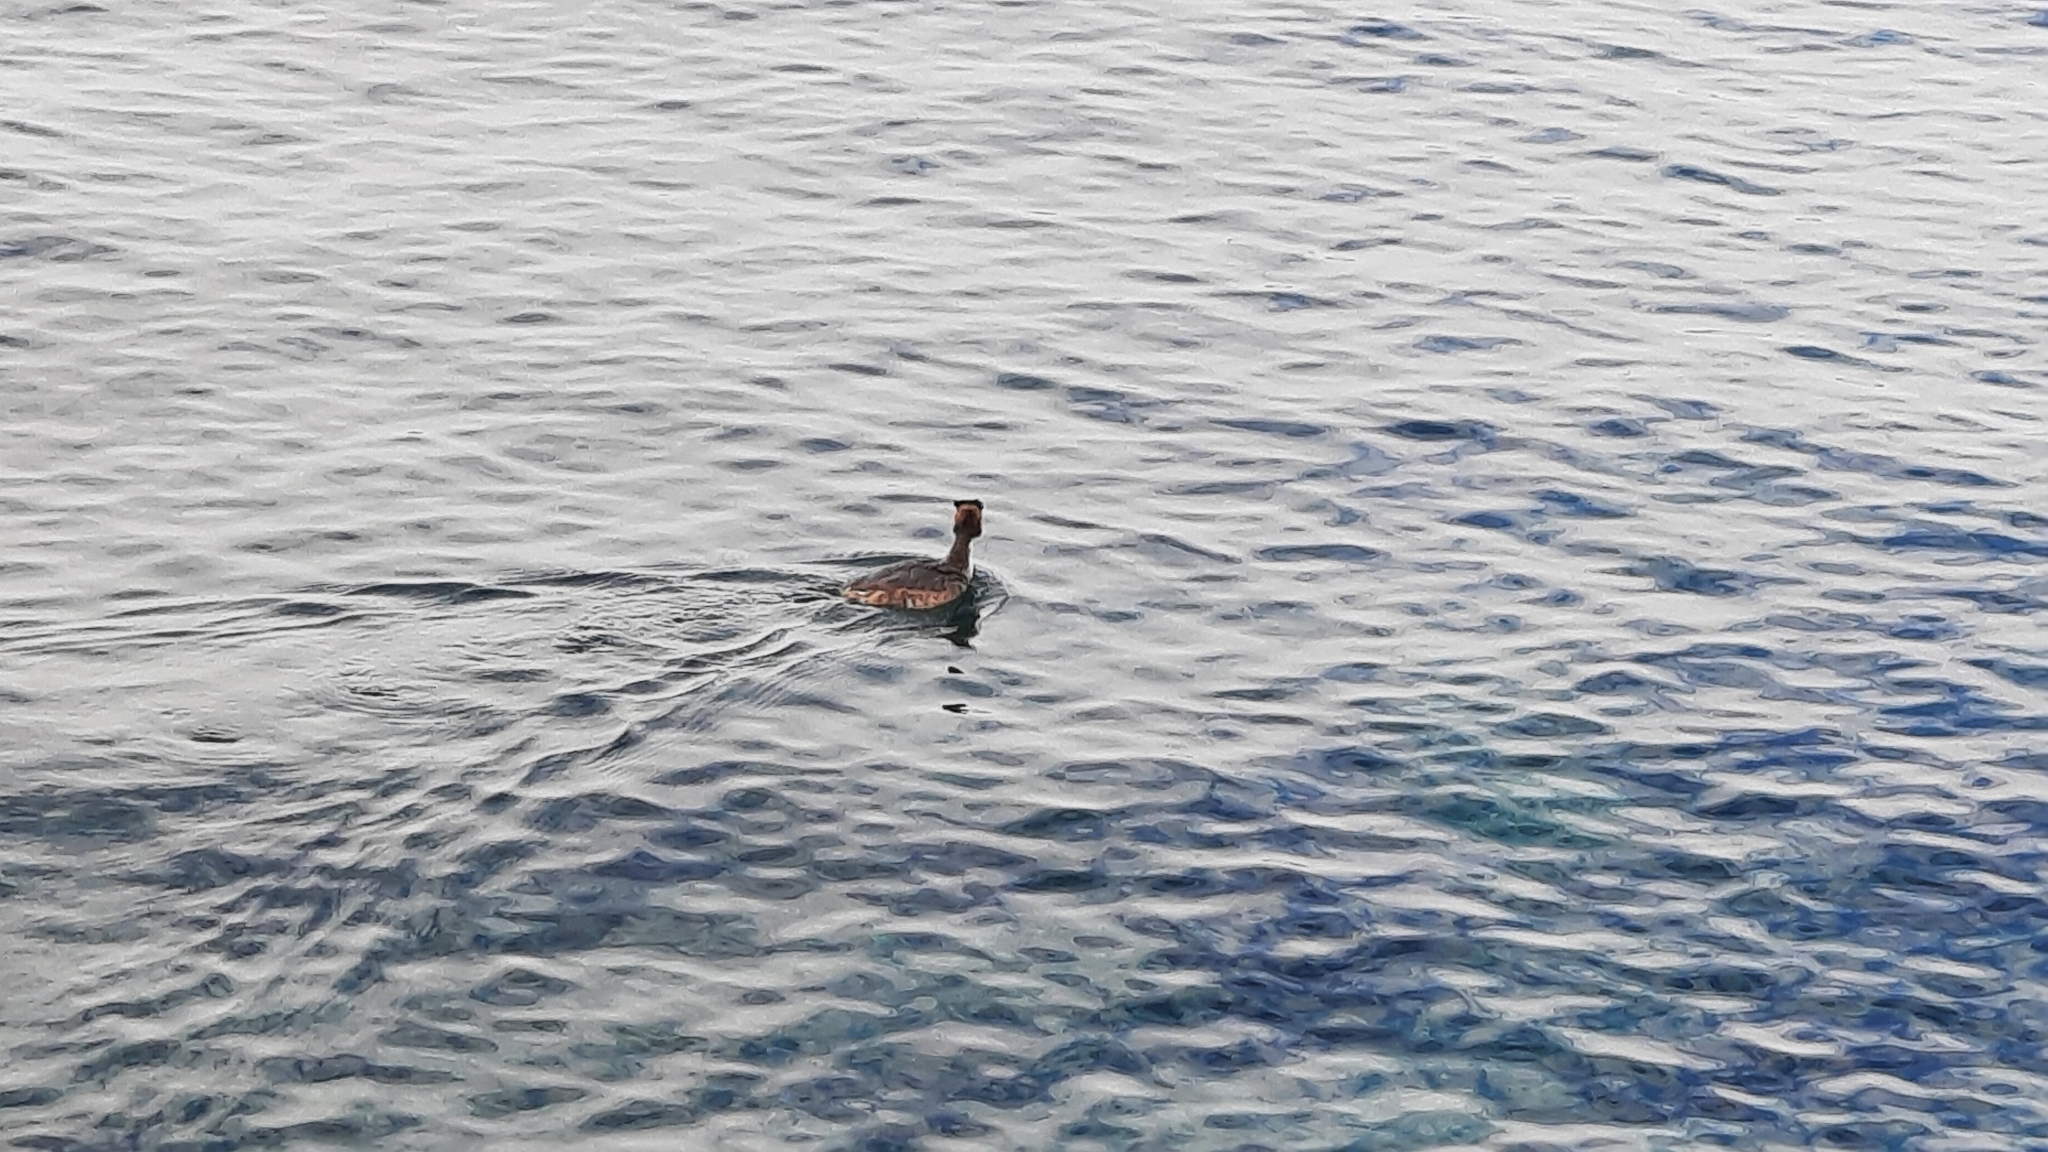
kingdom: Animalia
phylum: Chordata
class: Aves
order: Podicipediformes
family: Podicipedidae
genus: Podiceps
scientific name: Podiceps cristatus
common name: Great crested grebe
